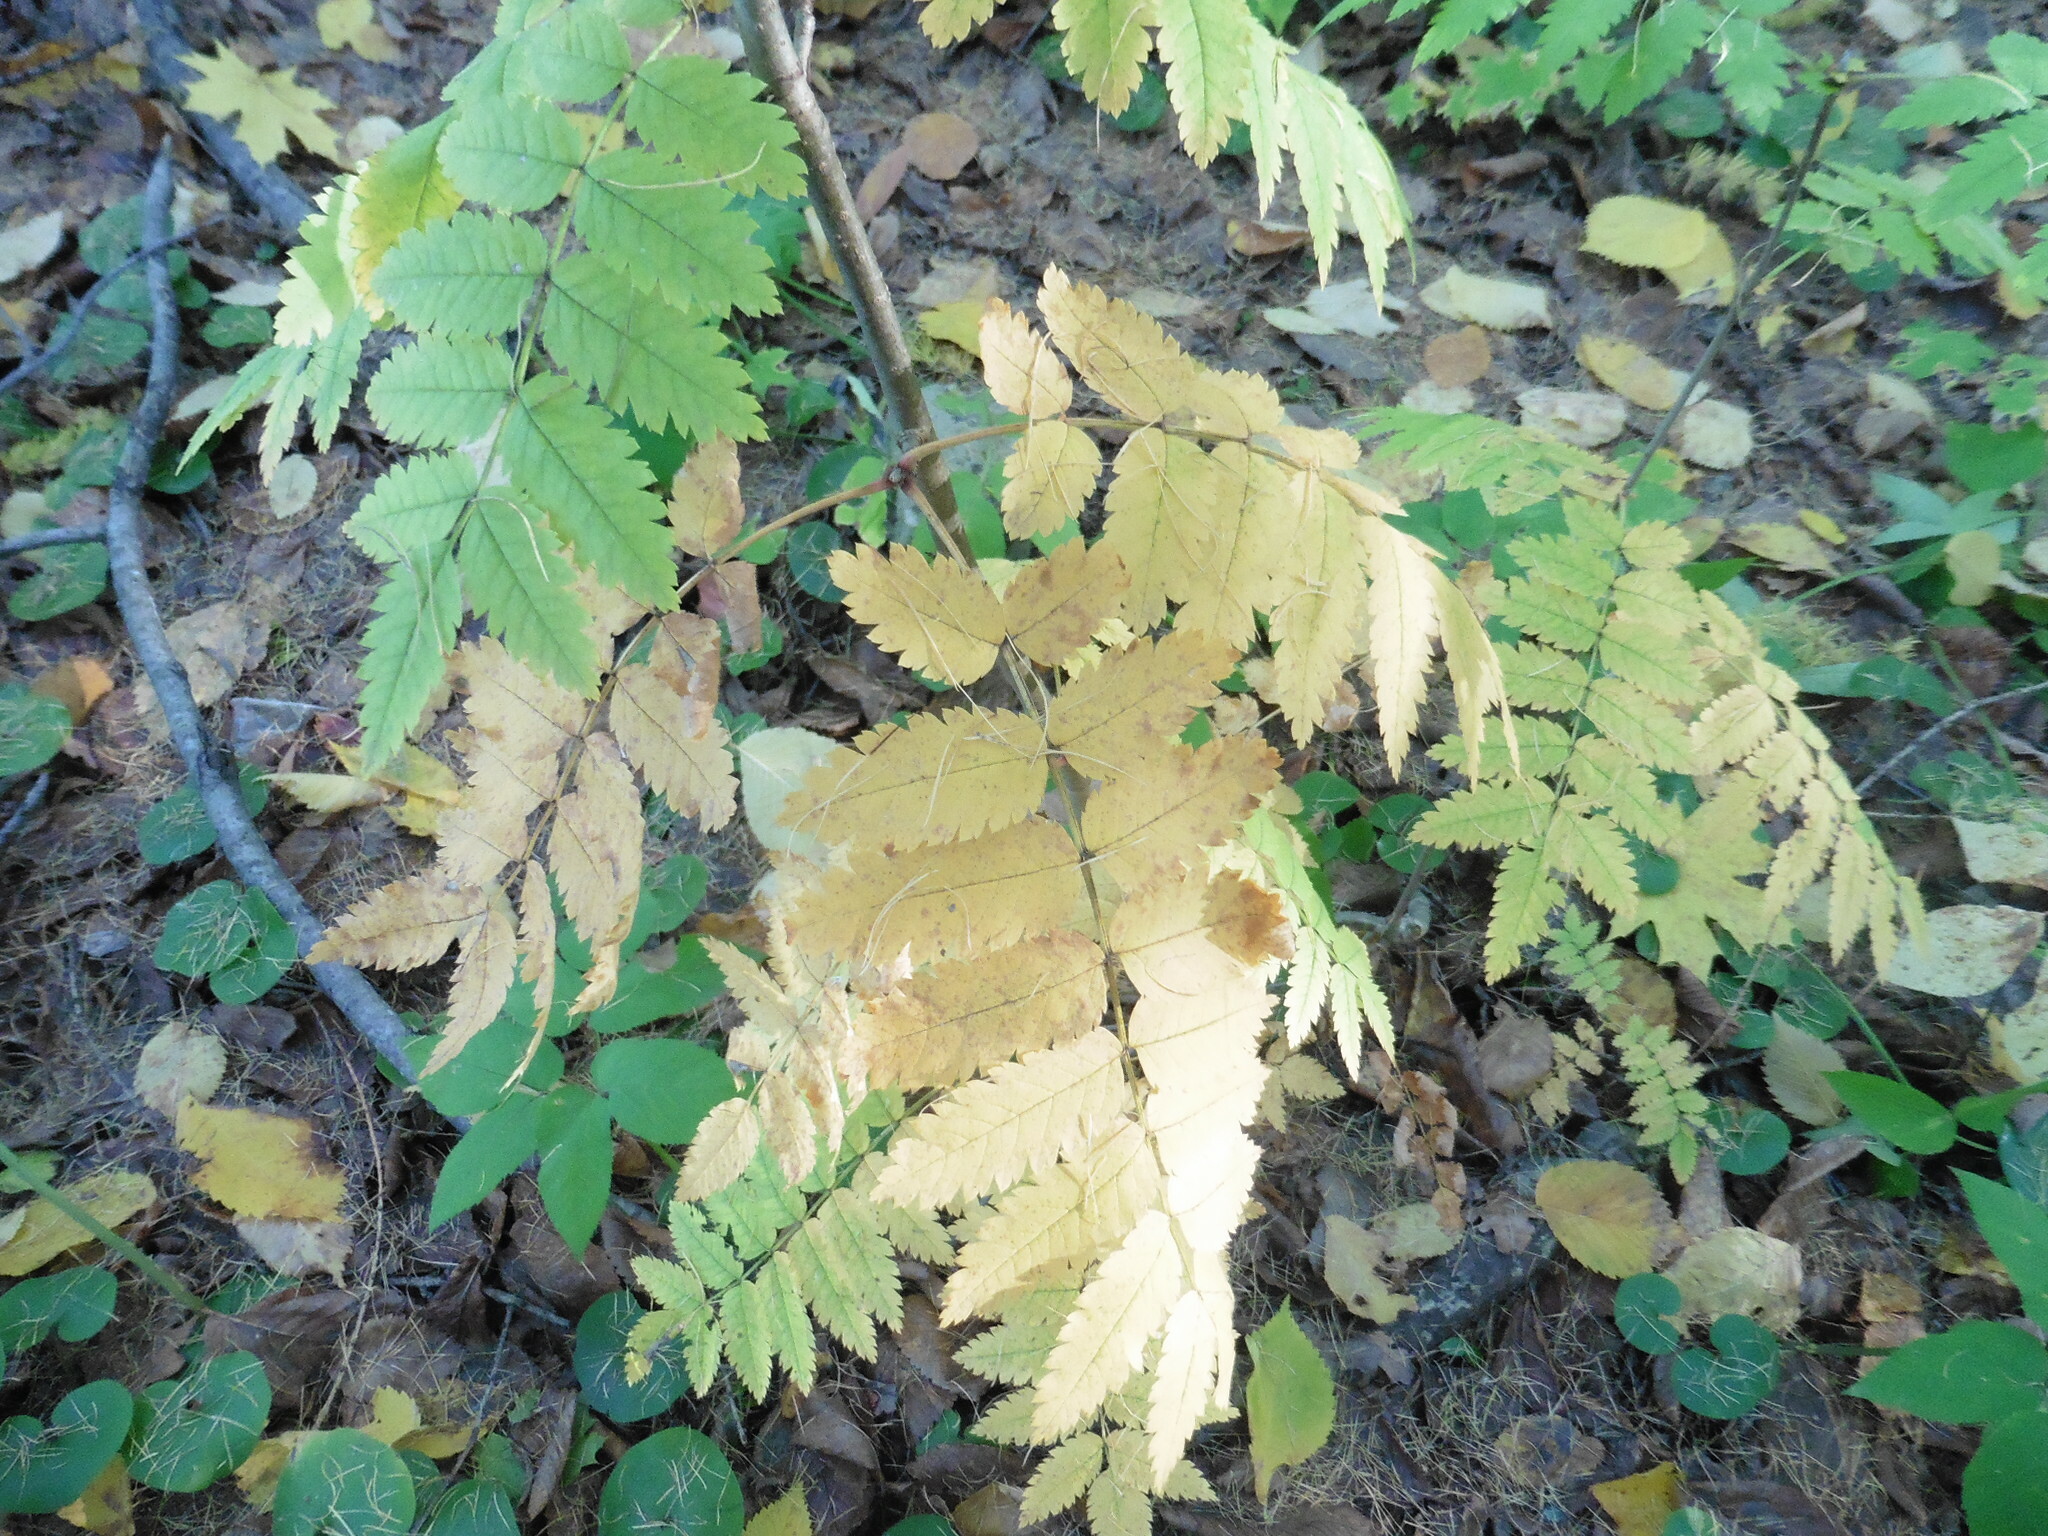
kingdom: Plantae
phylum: Tracheophyta
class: Magnoliopsida
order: Rosales
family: Rosaceae
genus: Sorbus
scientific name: Sorbus aucuparia
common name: Rowan
